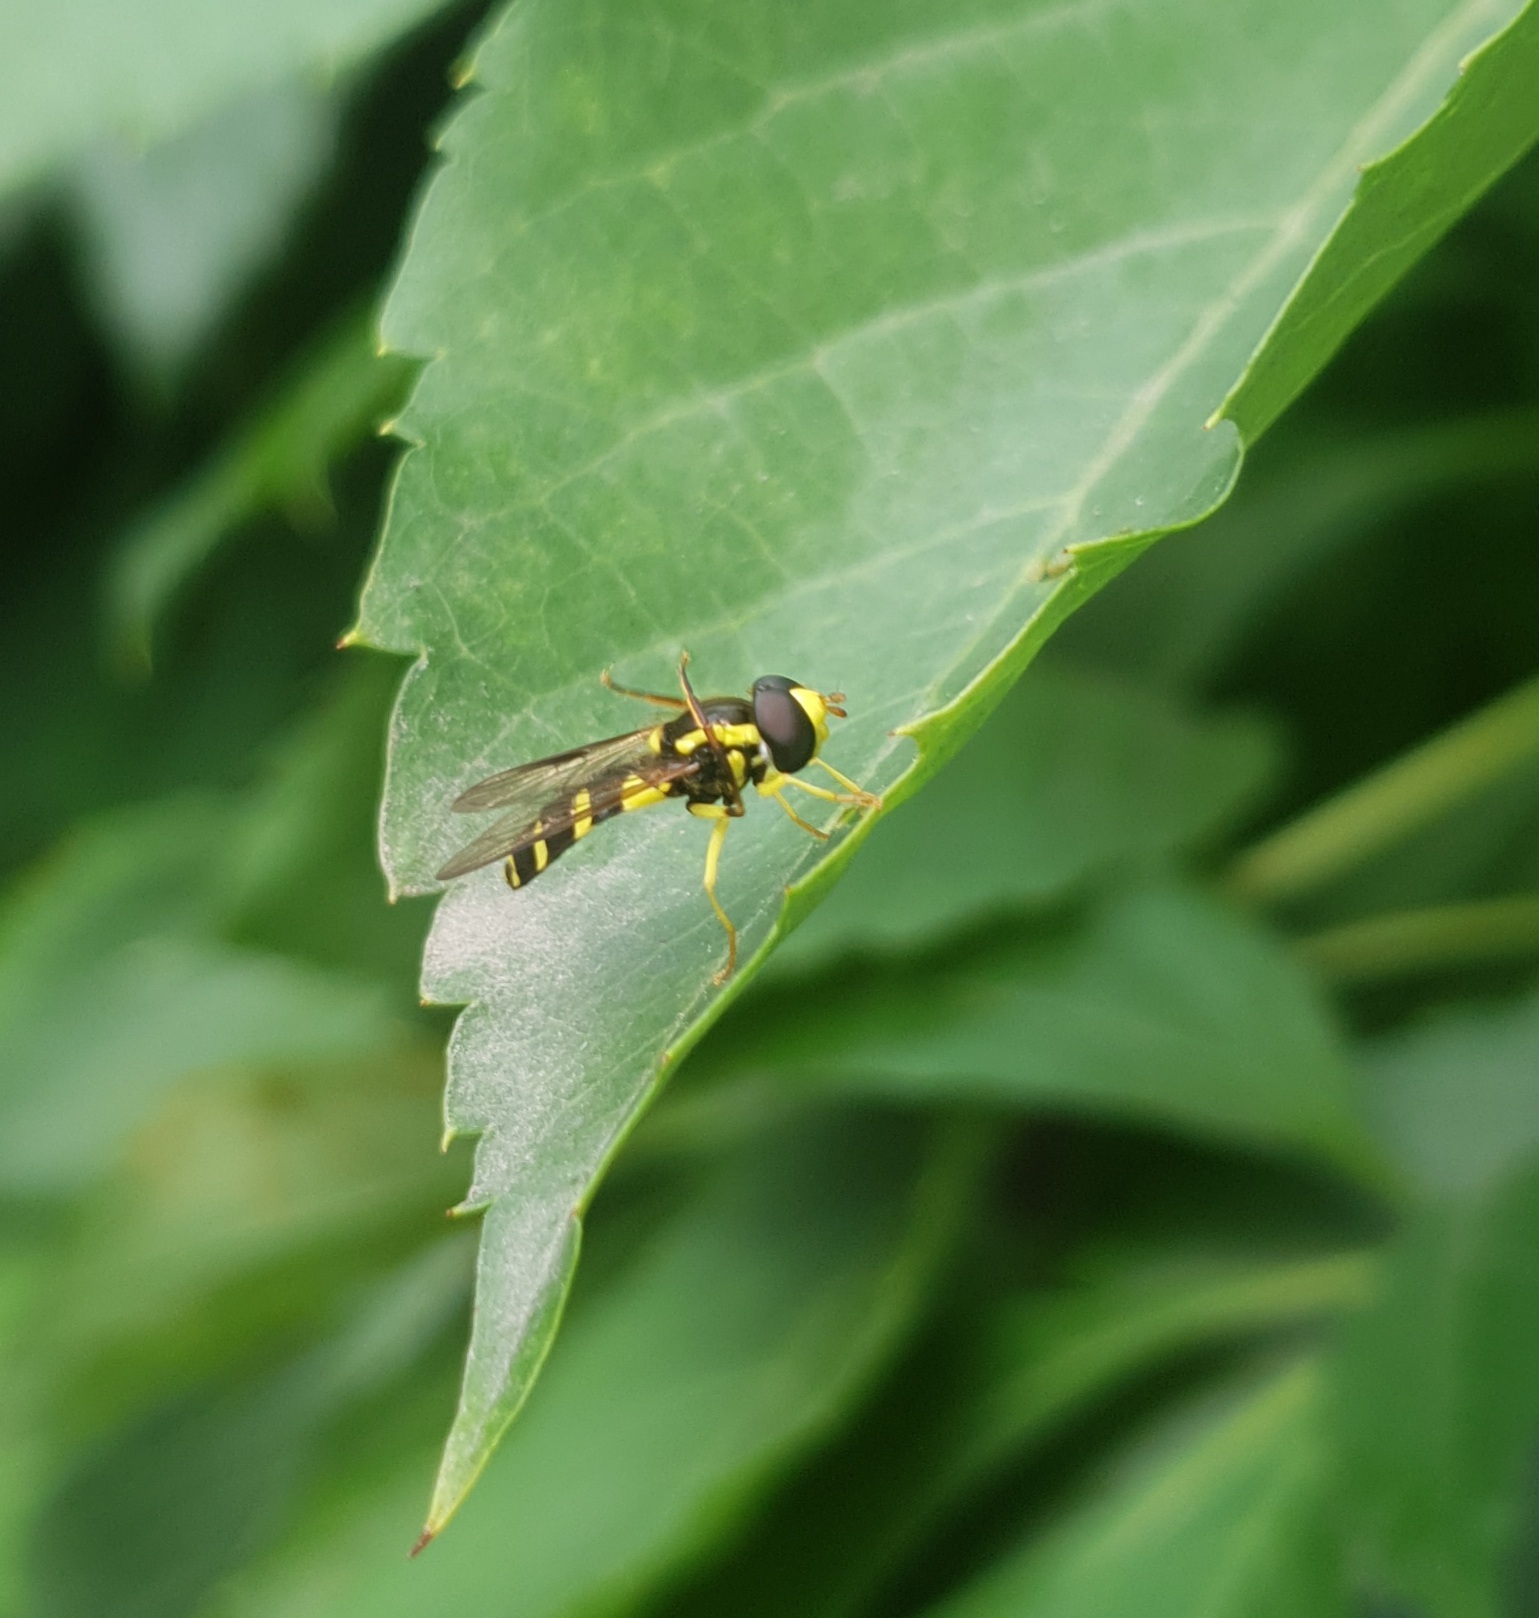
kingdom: Animalia
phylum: Arthropoda
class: Insecta
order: Diptera
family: Syrphidae
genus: Philhelius
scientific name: Philhelius dives
